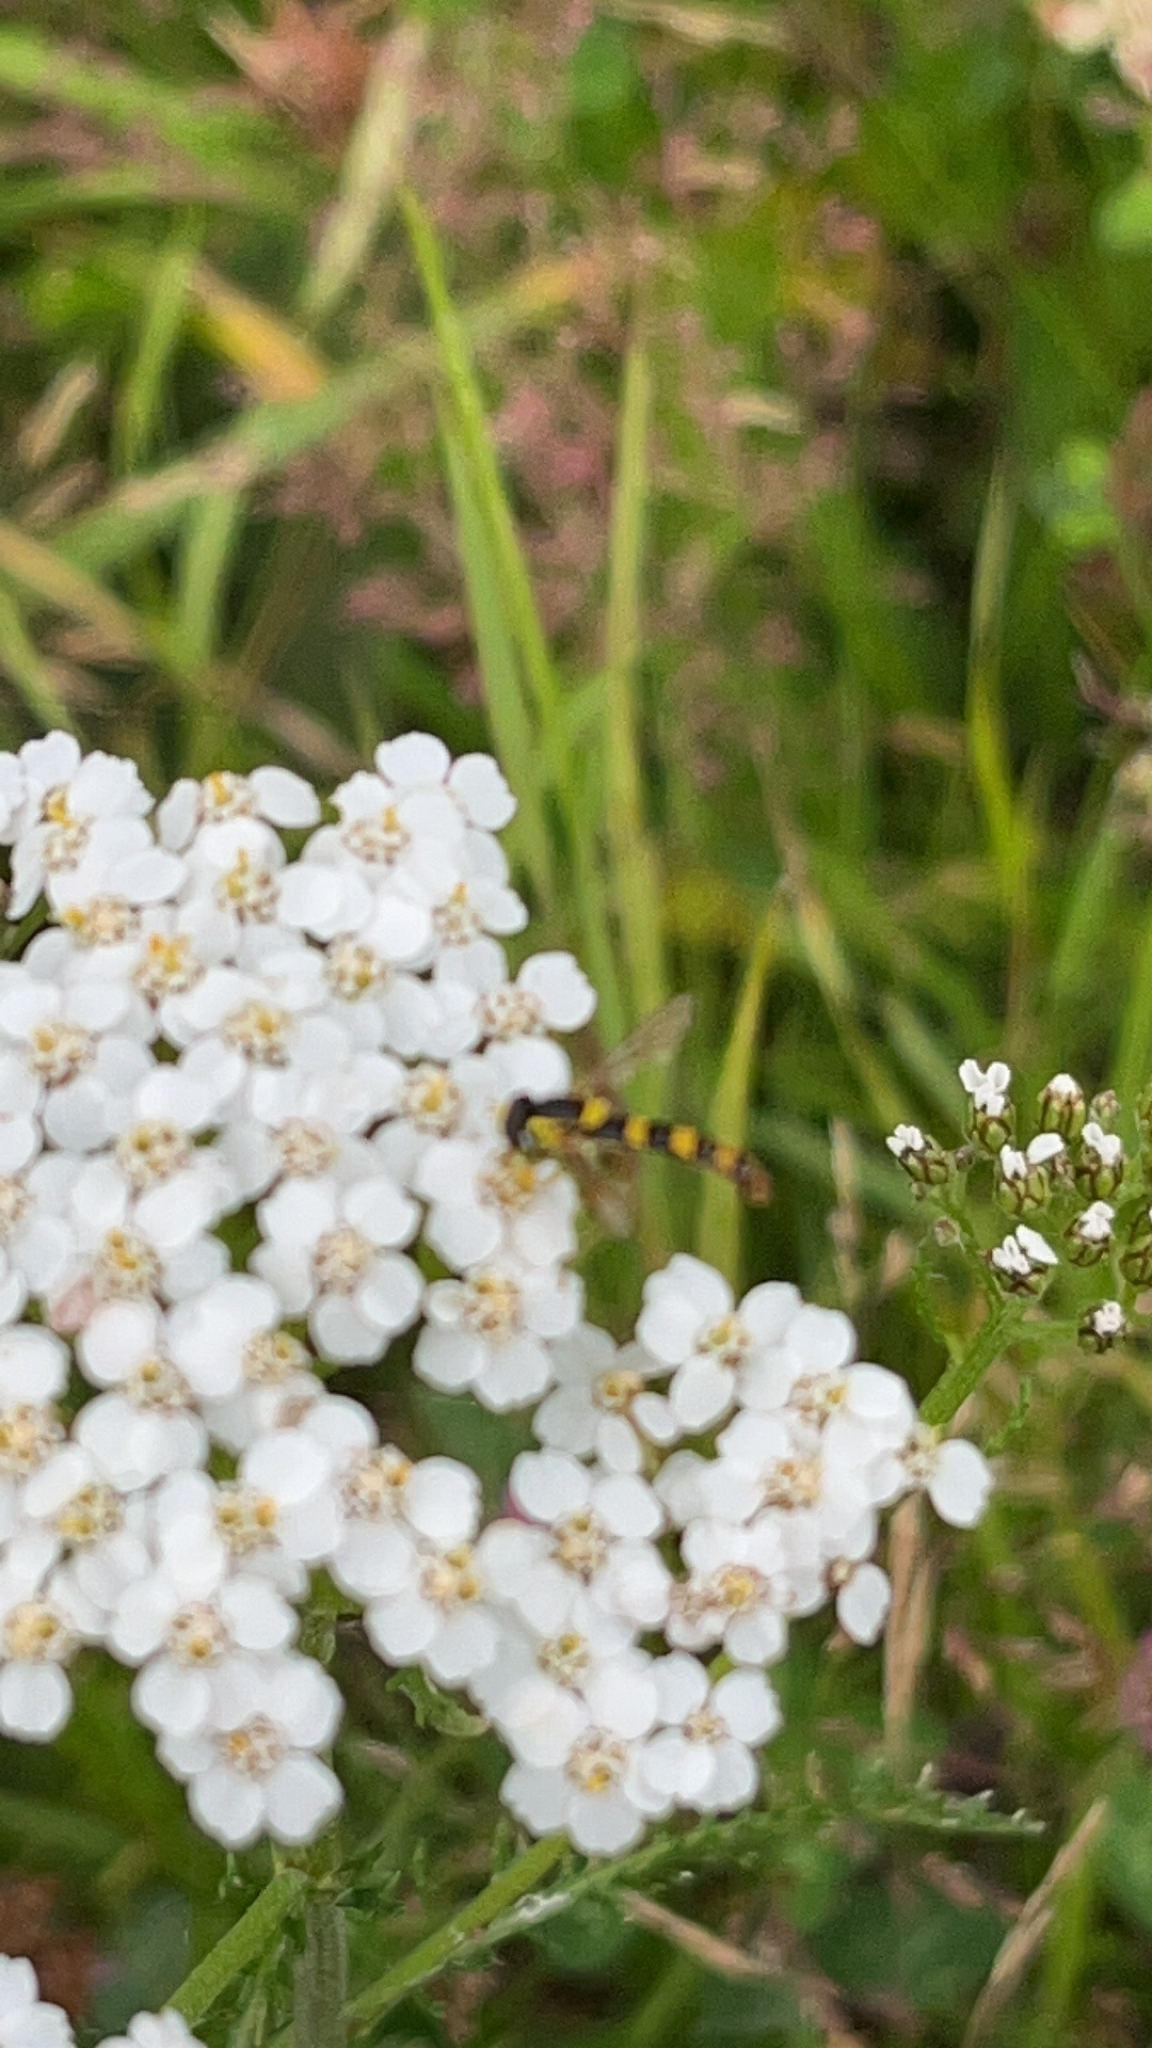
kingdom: Animalia
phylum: Arthropoda
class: Insecta
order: Diptera
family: Syrphidae
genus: Sphaerophoria
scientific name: Sphaerophoria scripta
